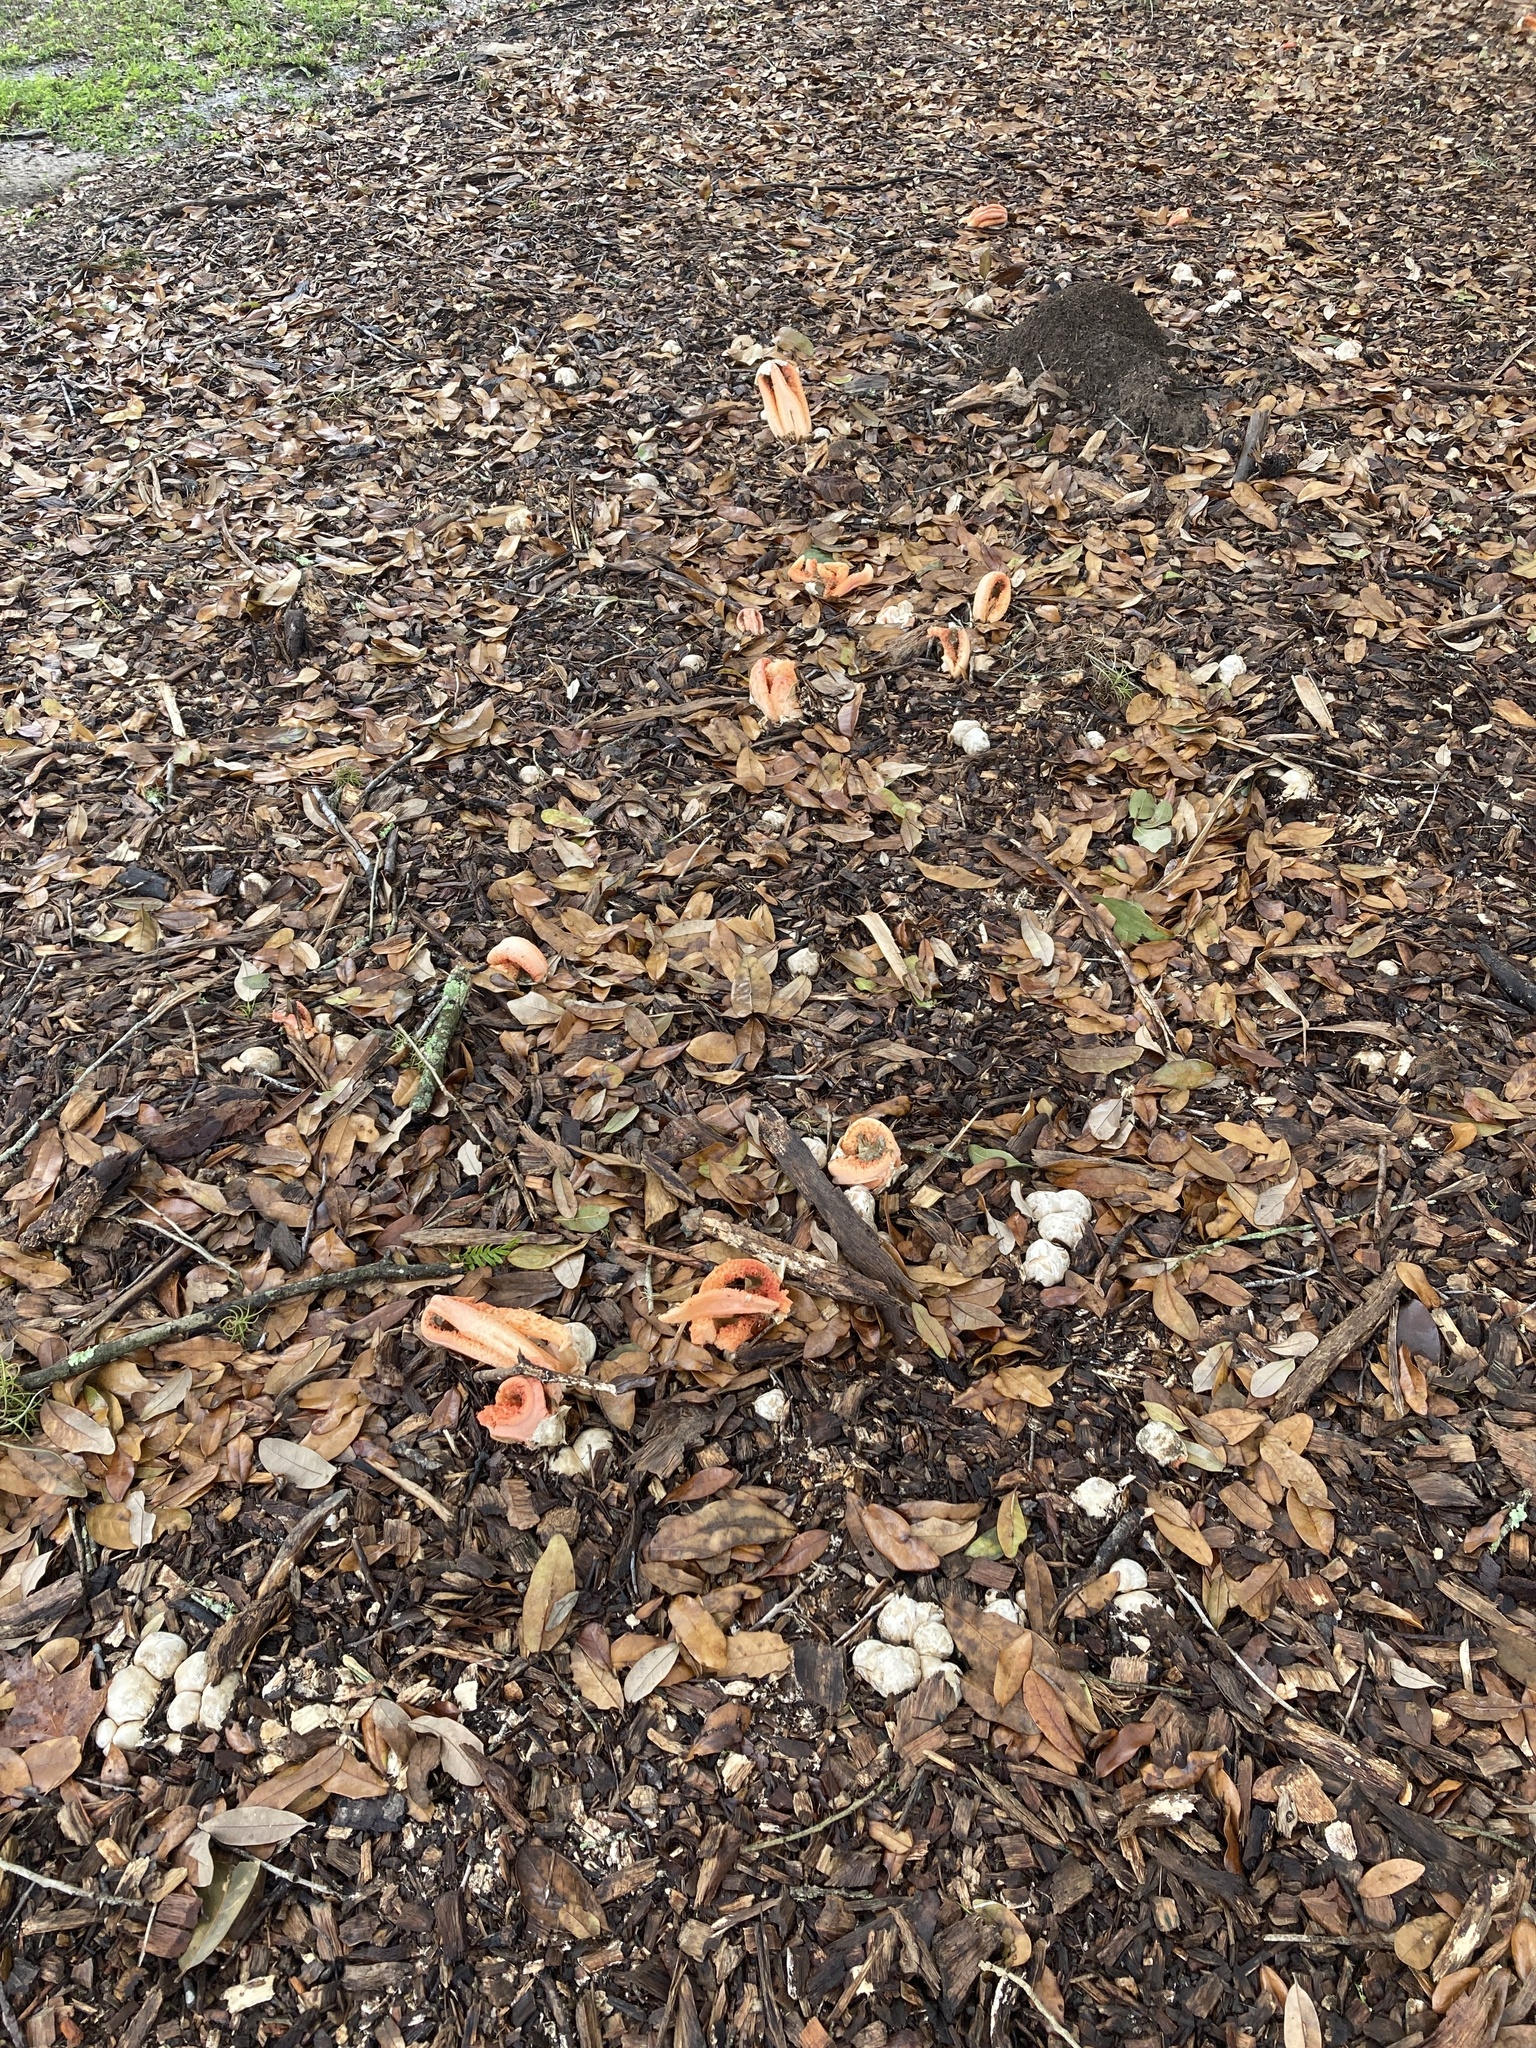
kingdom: Fungi
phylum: Basidiomycota
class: Agaricomycetes
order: Phallales
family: Phallaceae
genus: Clathrus
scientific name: Clathrus columnatus
